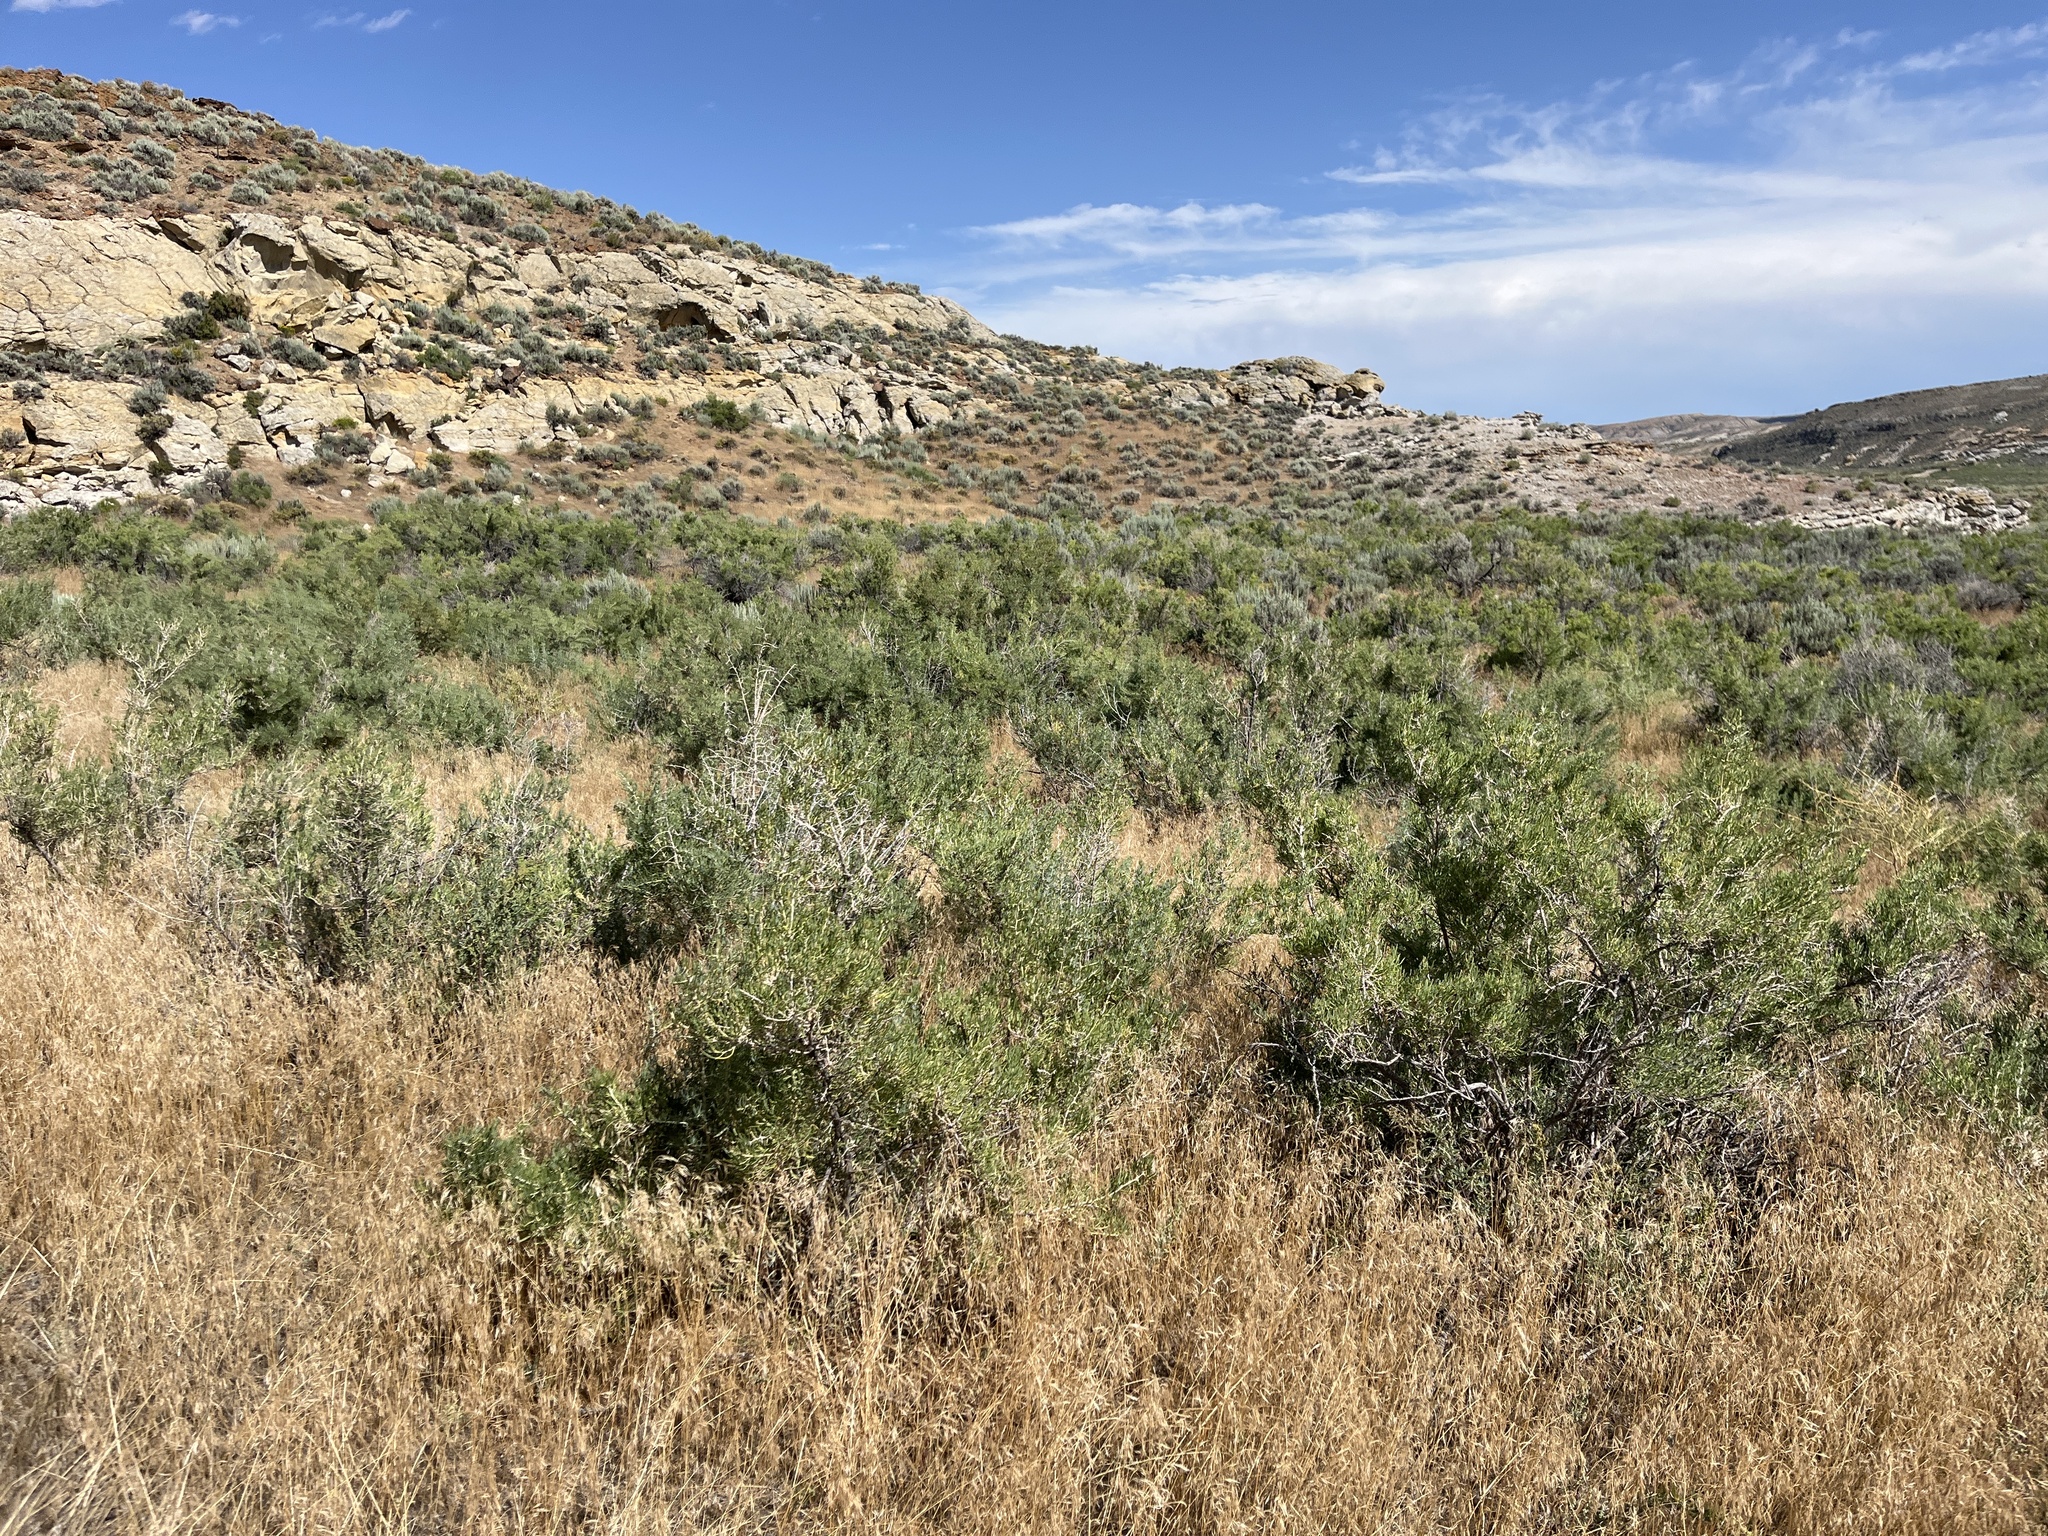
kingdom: Plantae
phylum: Tracheophyta
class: Magnoliopsida
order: Caryophyllales
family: Sarcobataceae
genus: Sarcobatus
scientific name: Sarcobatus vermiculatus
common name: Greasewood
